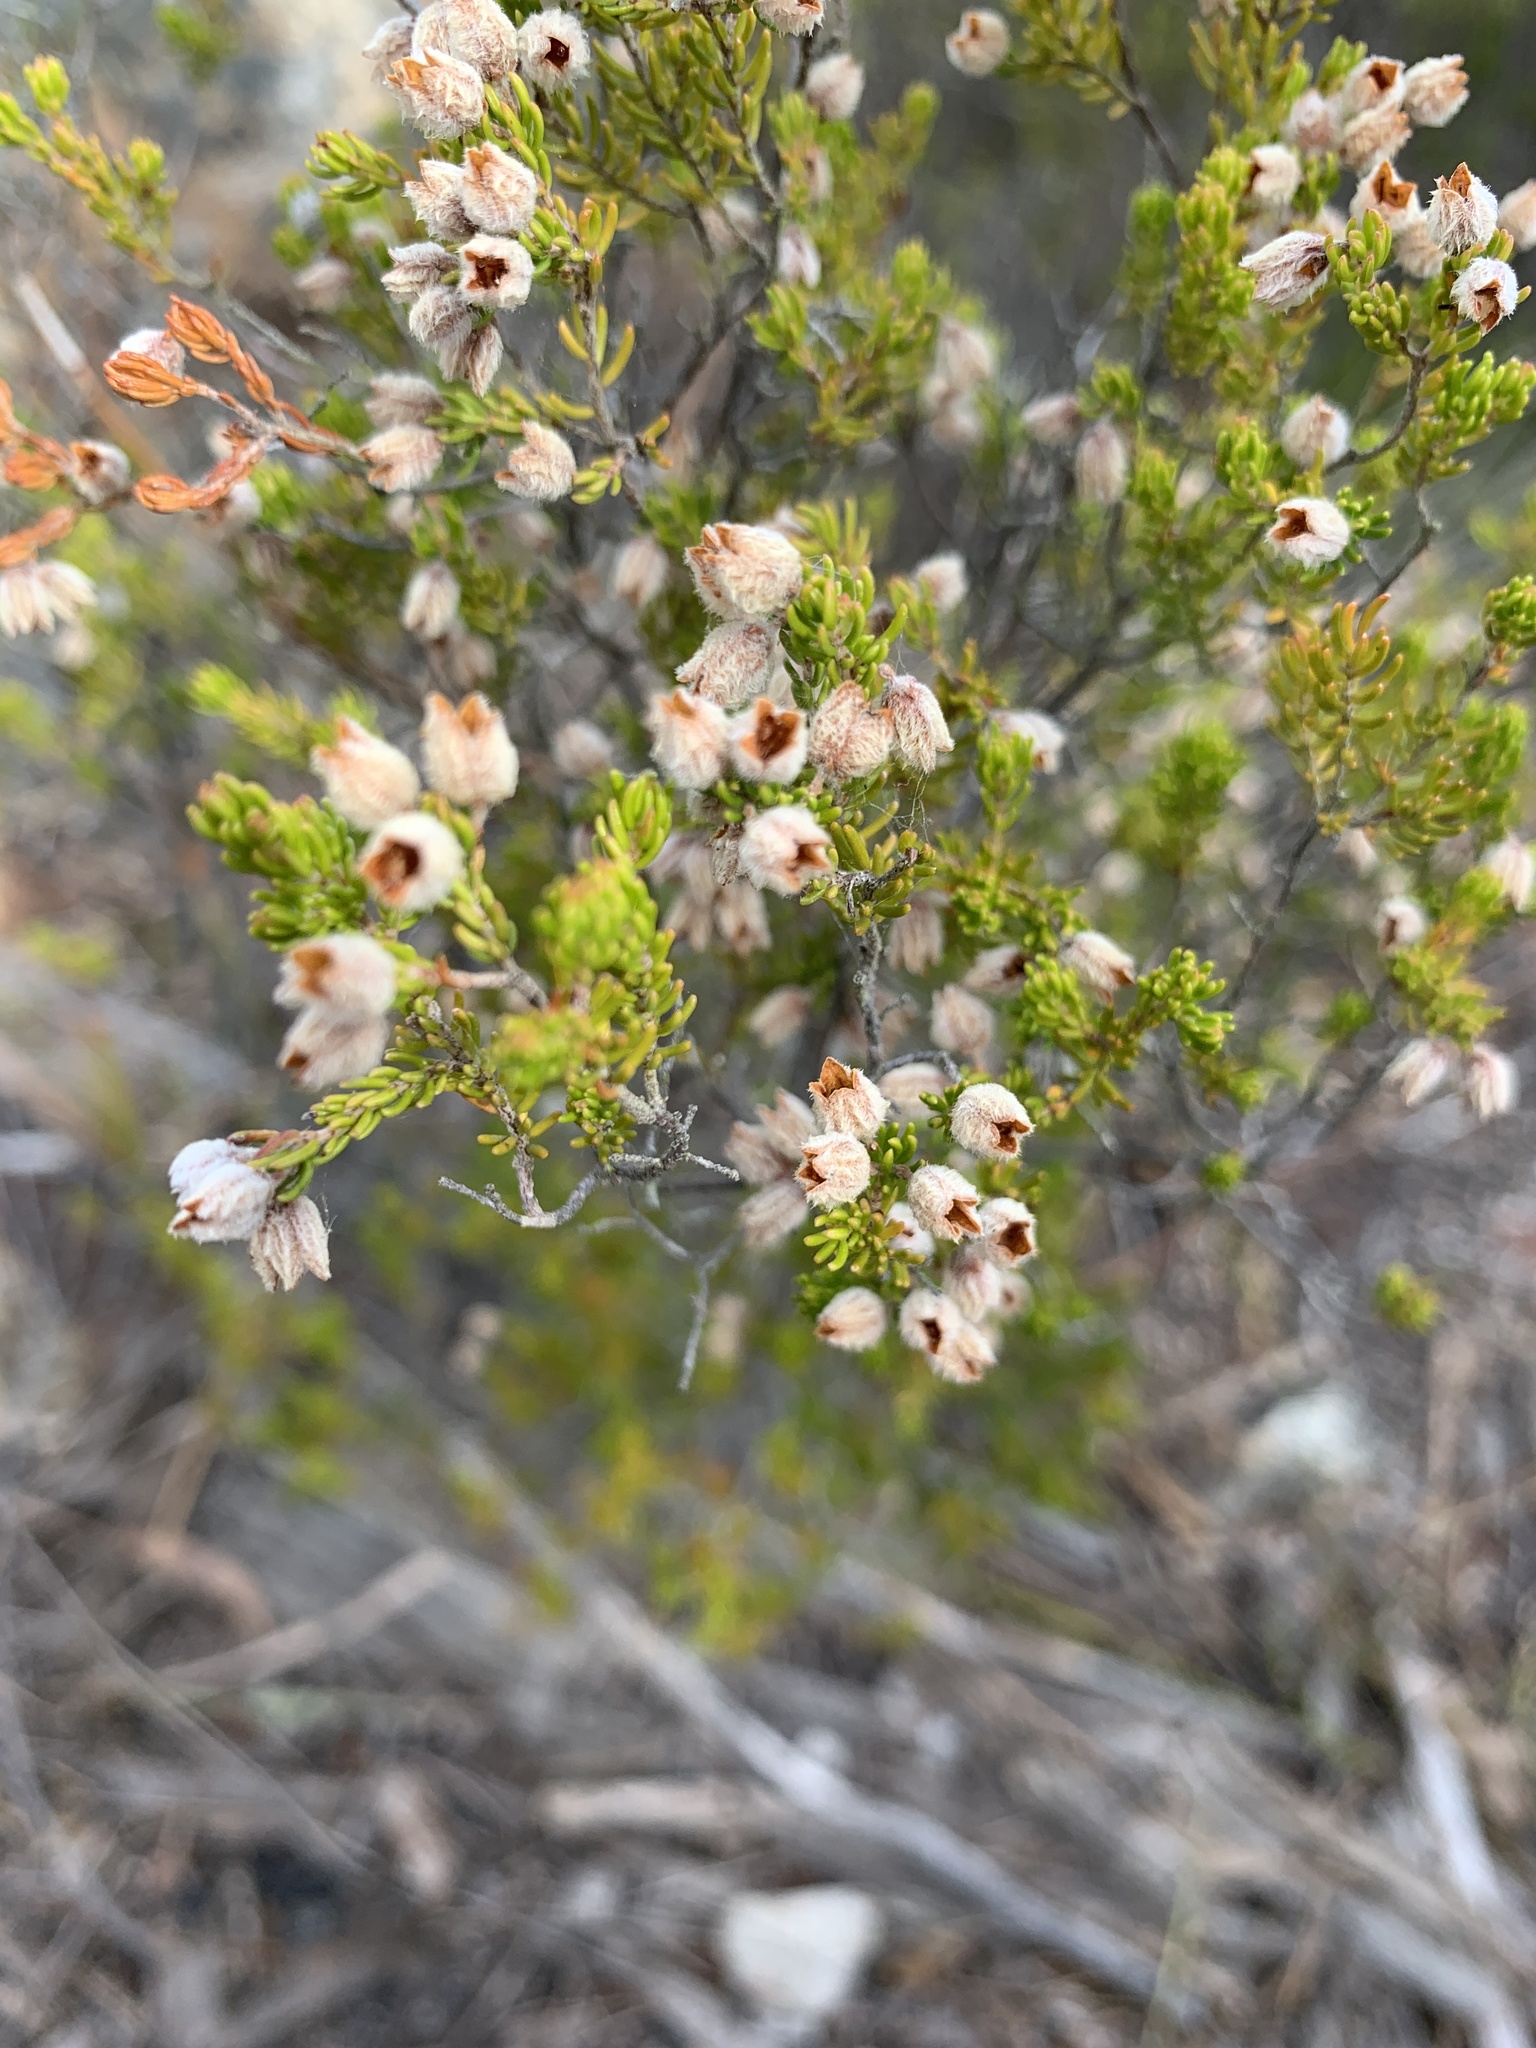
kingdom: Plantae
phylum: Tracheophyta
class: Magnoliopsida
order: Ericales
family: Ericaceae
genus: Erica
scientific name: Erica ovina
